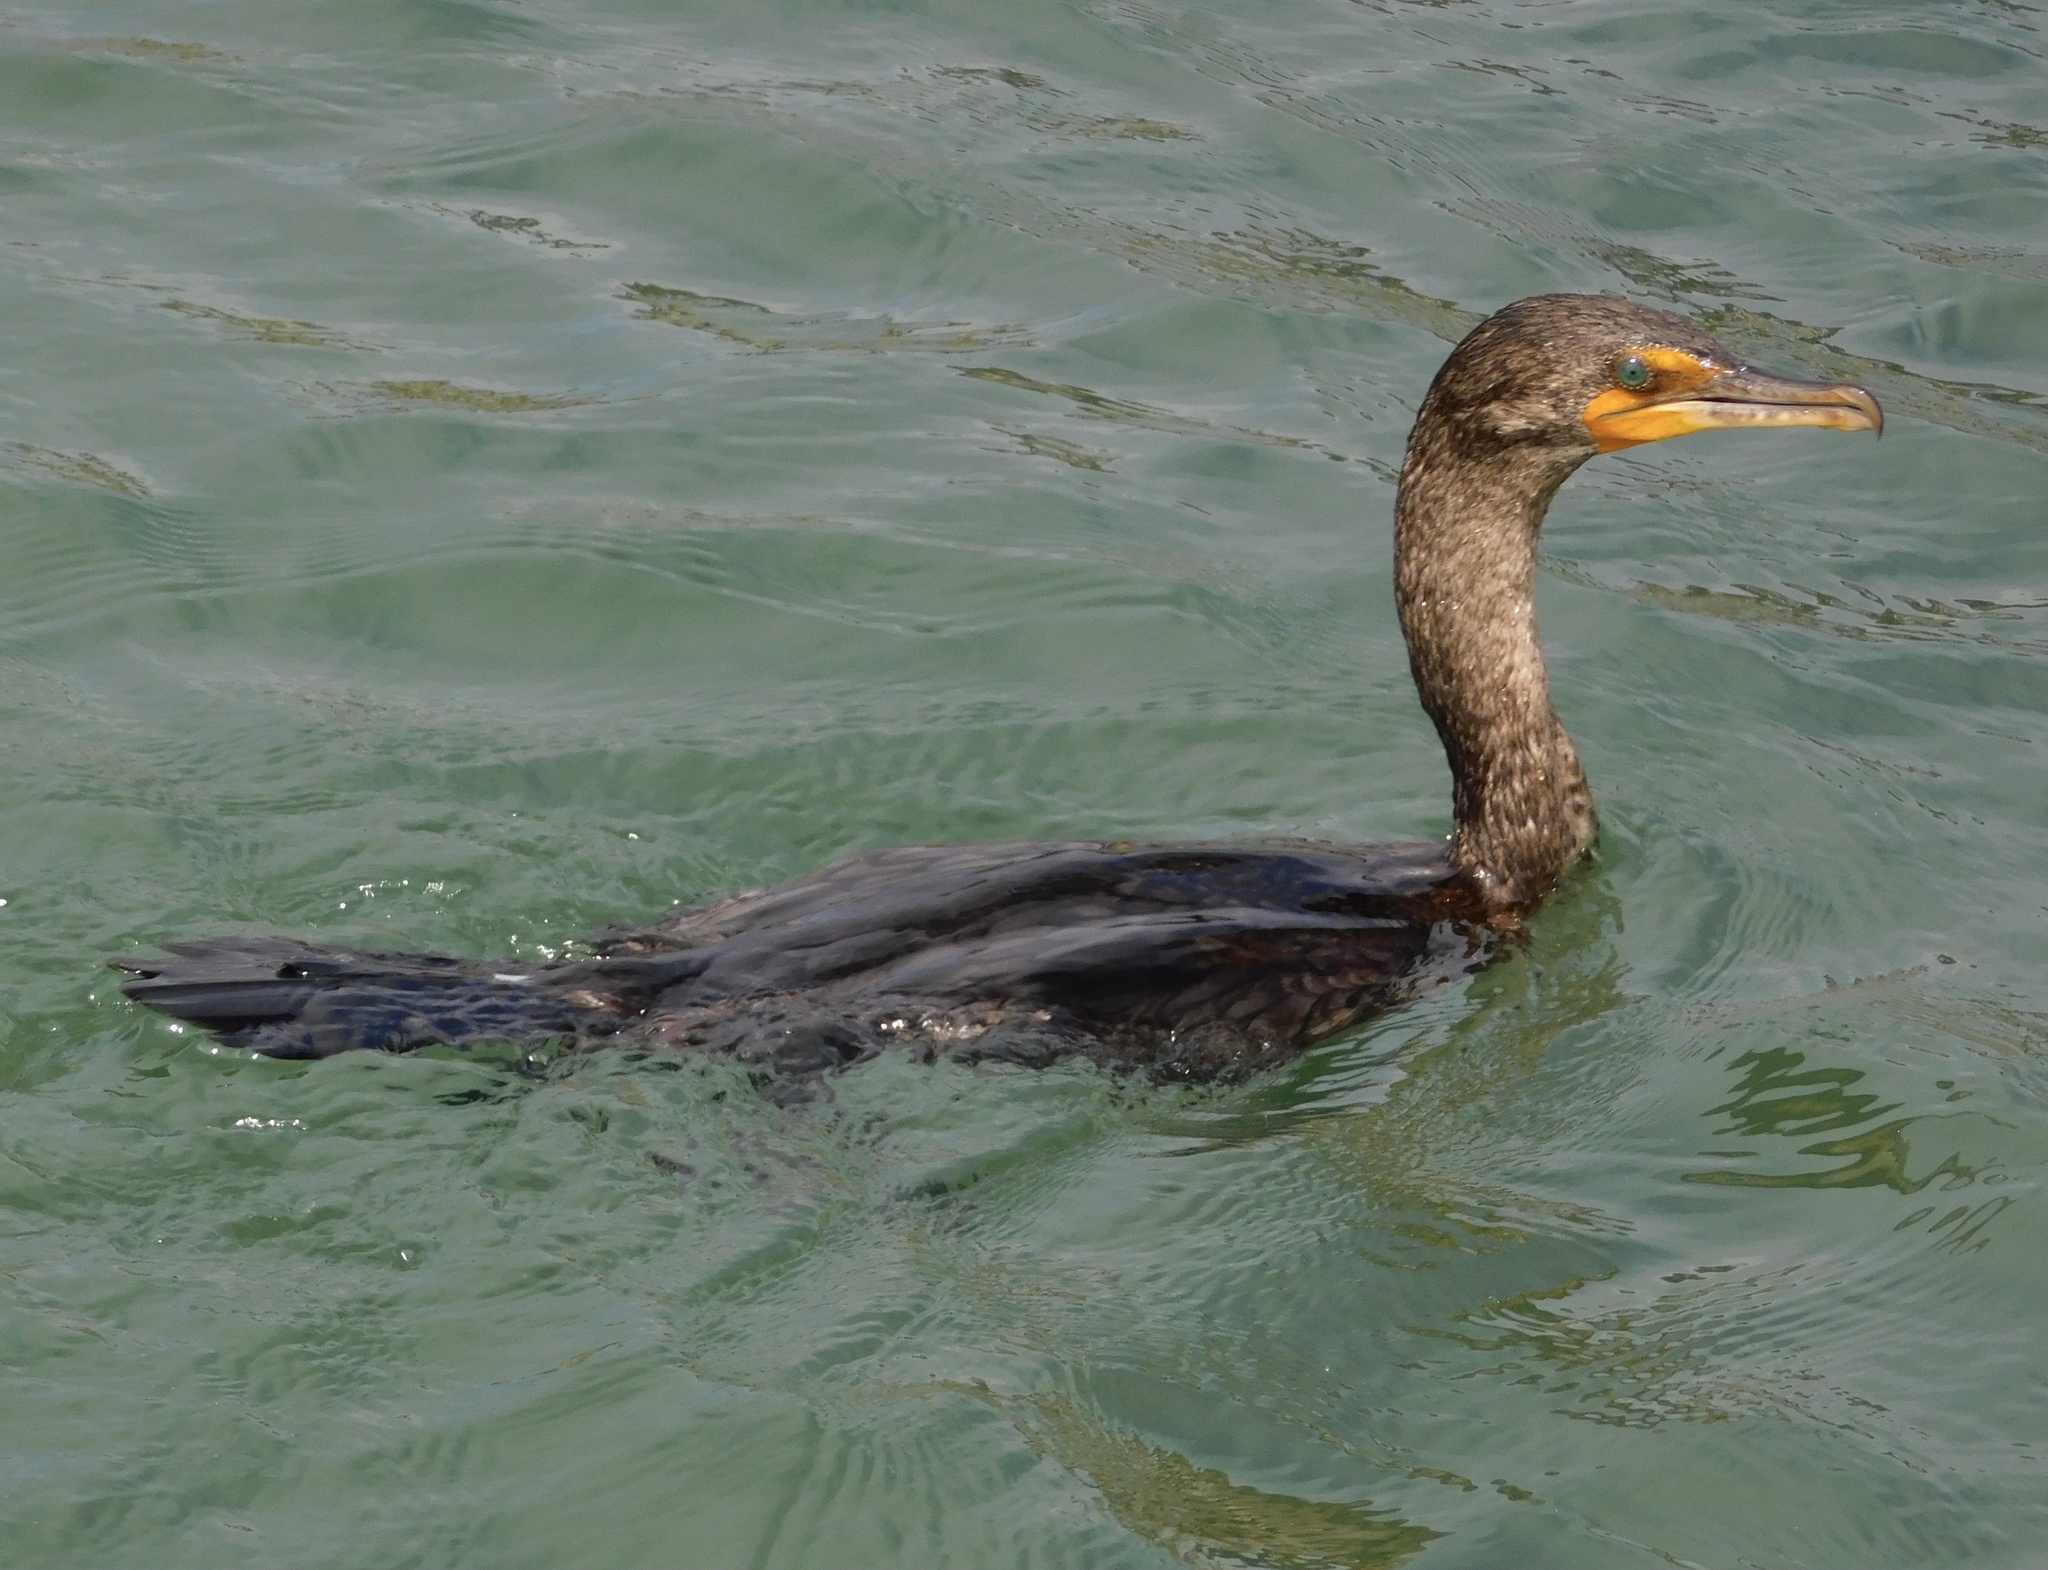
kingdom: Animalia
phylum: Chordata
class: Aves
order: Suliformes
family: Phalacrocoracidae
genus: Phalacrocorax
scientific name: Phalacrocorax auritus
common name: Double-crested cormorant
